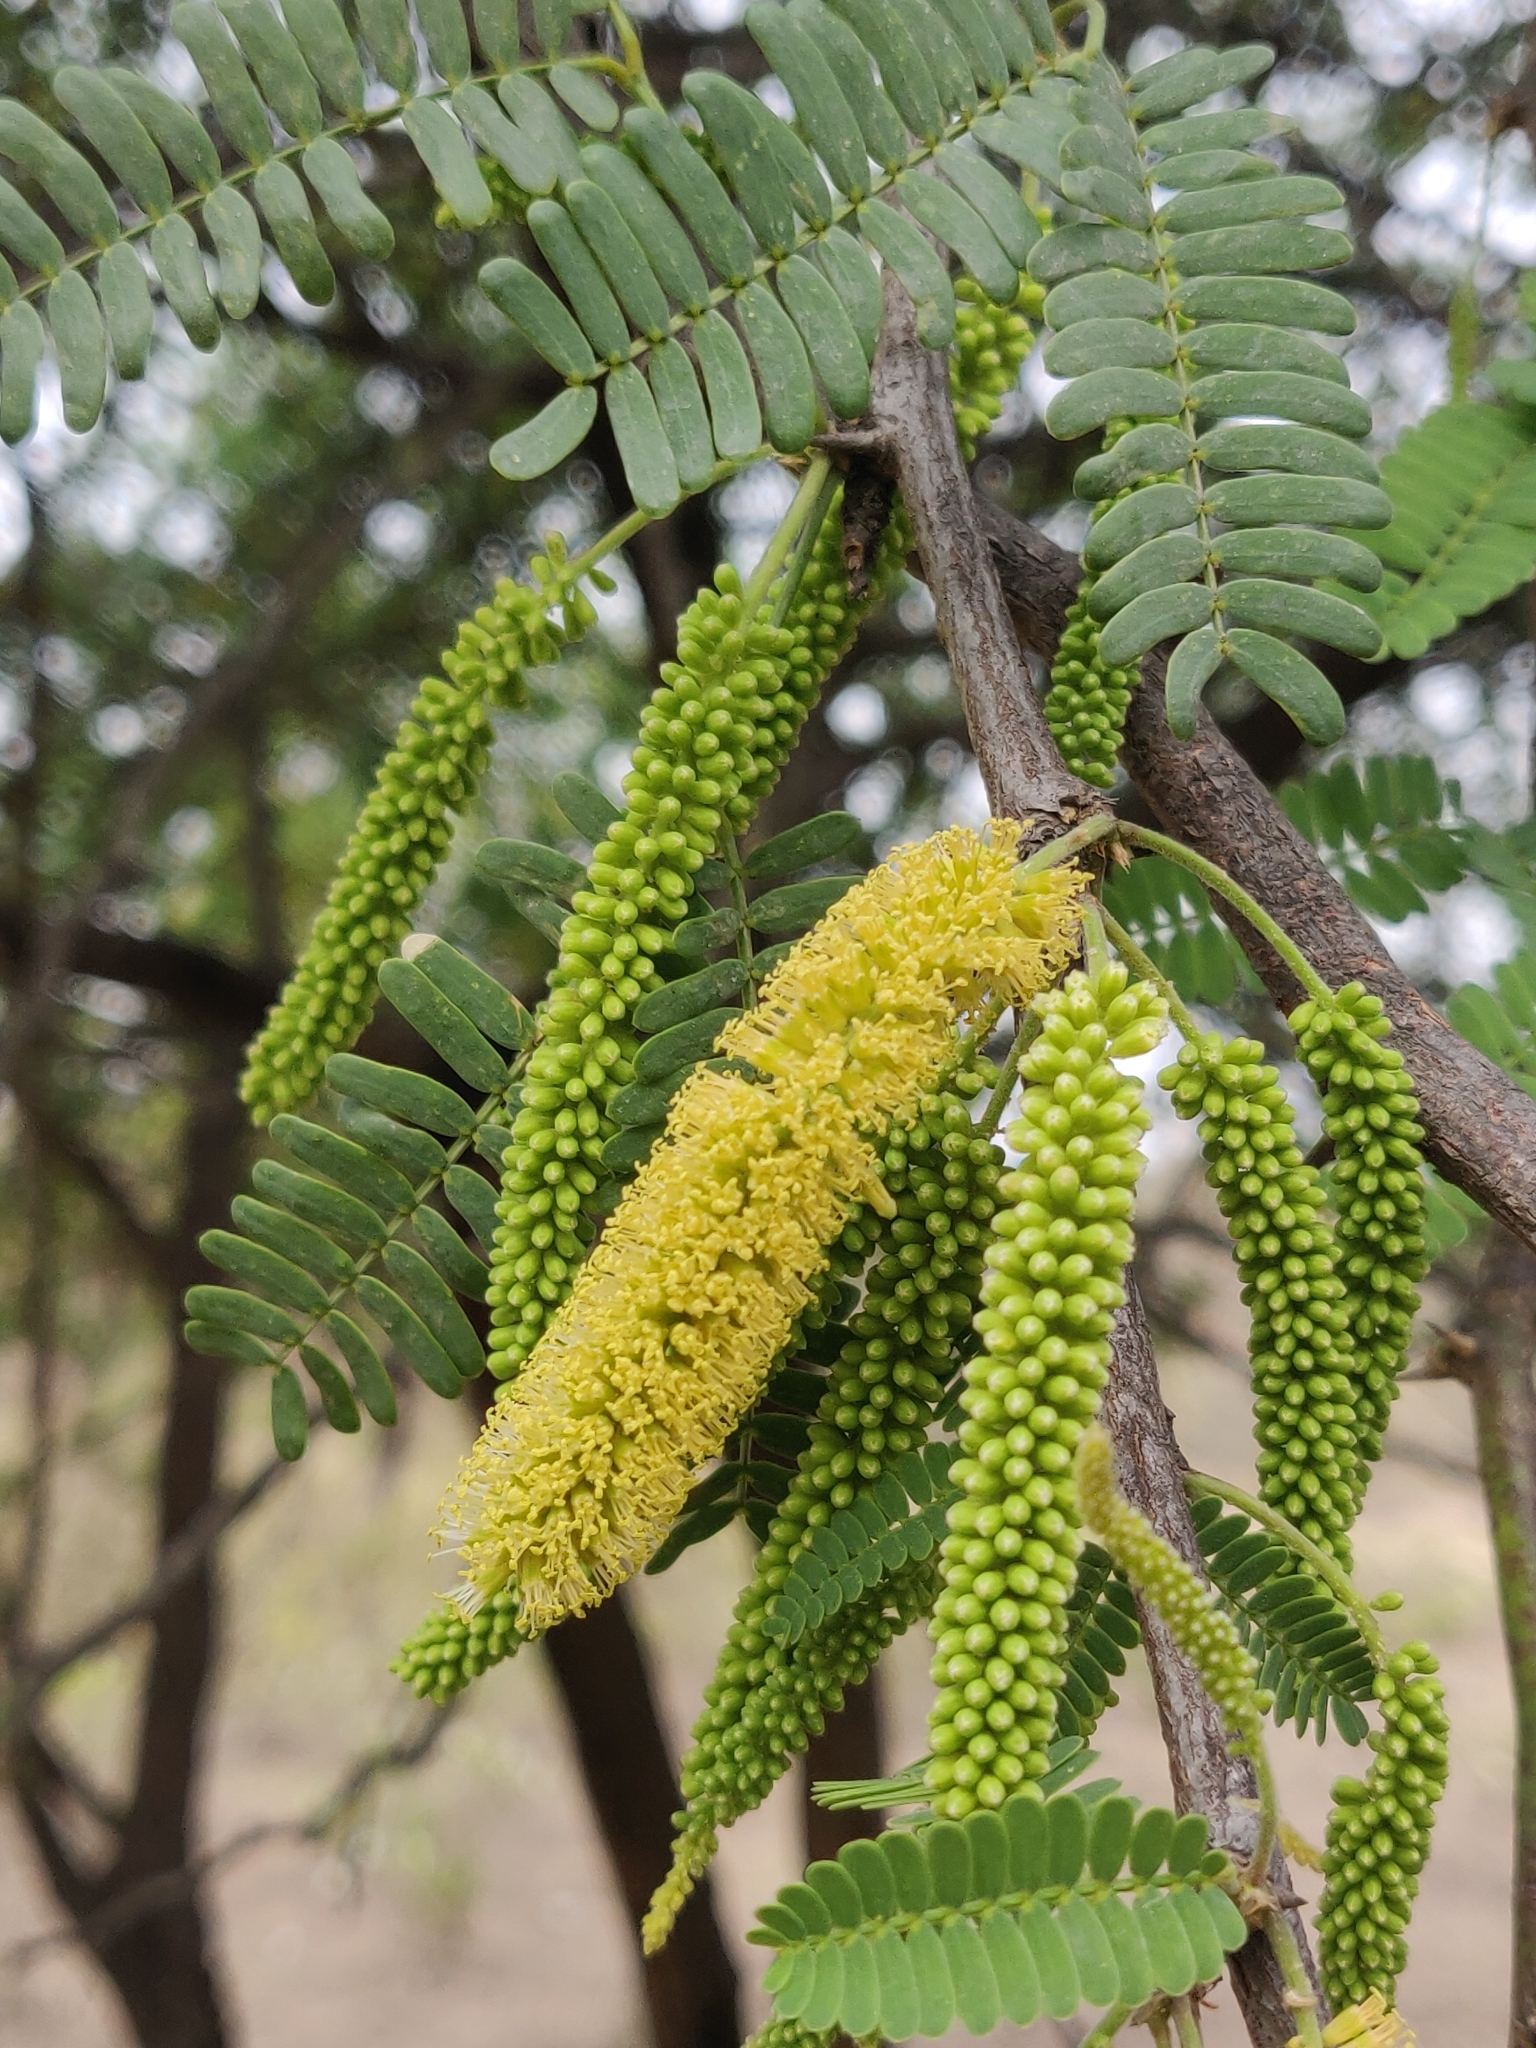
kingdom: Plantae
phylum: Tracheophyta
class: Magnoliopsida
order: Fabales
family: Fabaceae
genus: Prosopis
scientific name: Prosopis juliflora
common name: Mesquite
